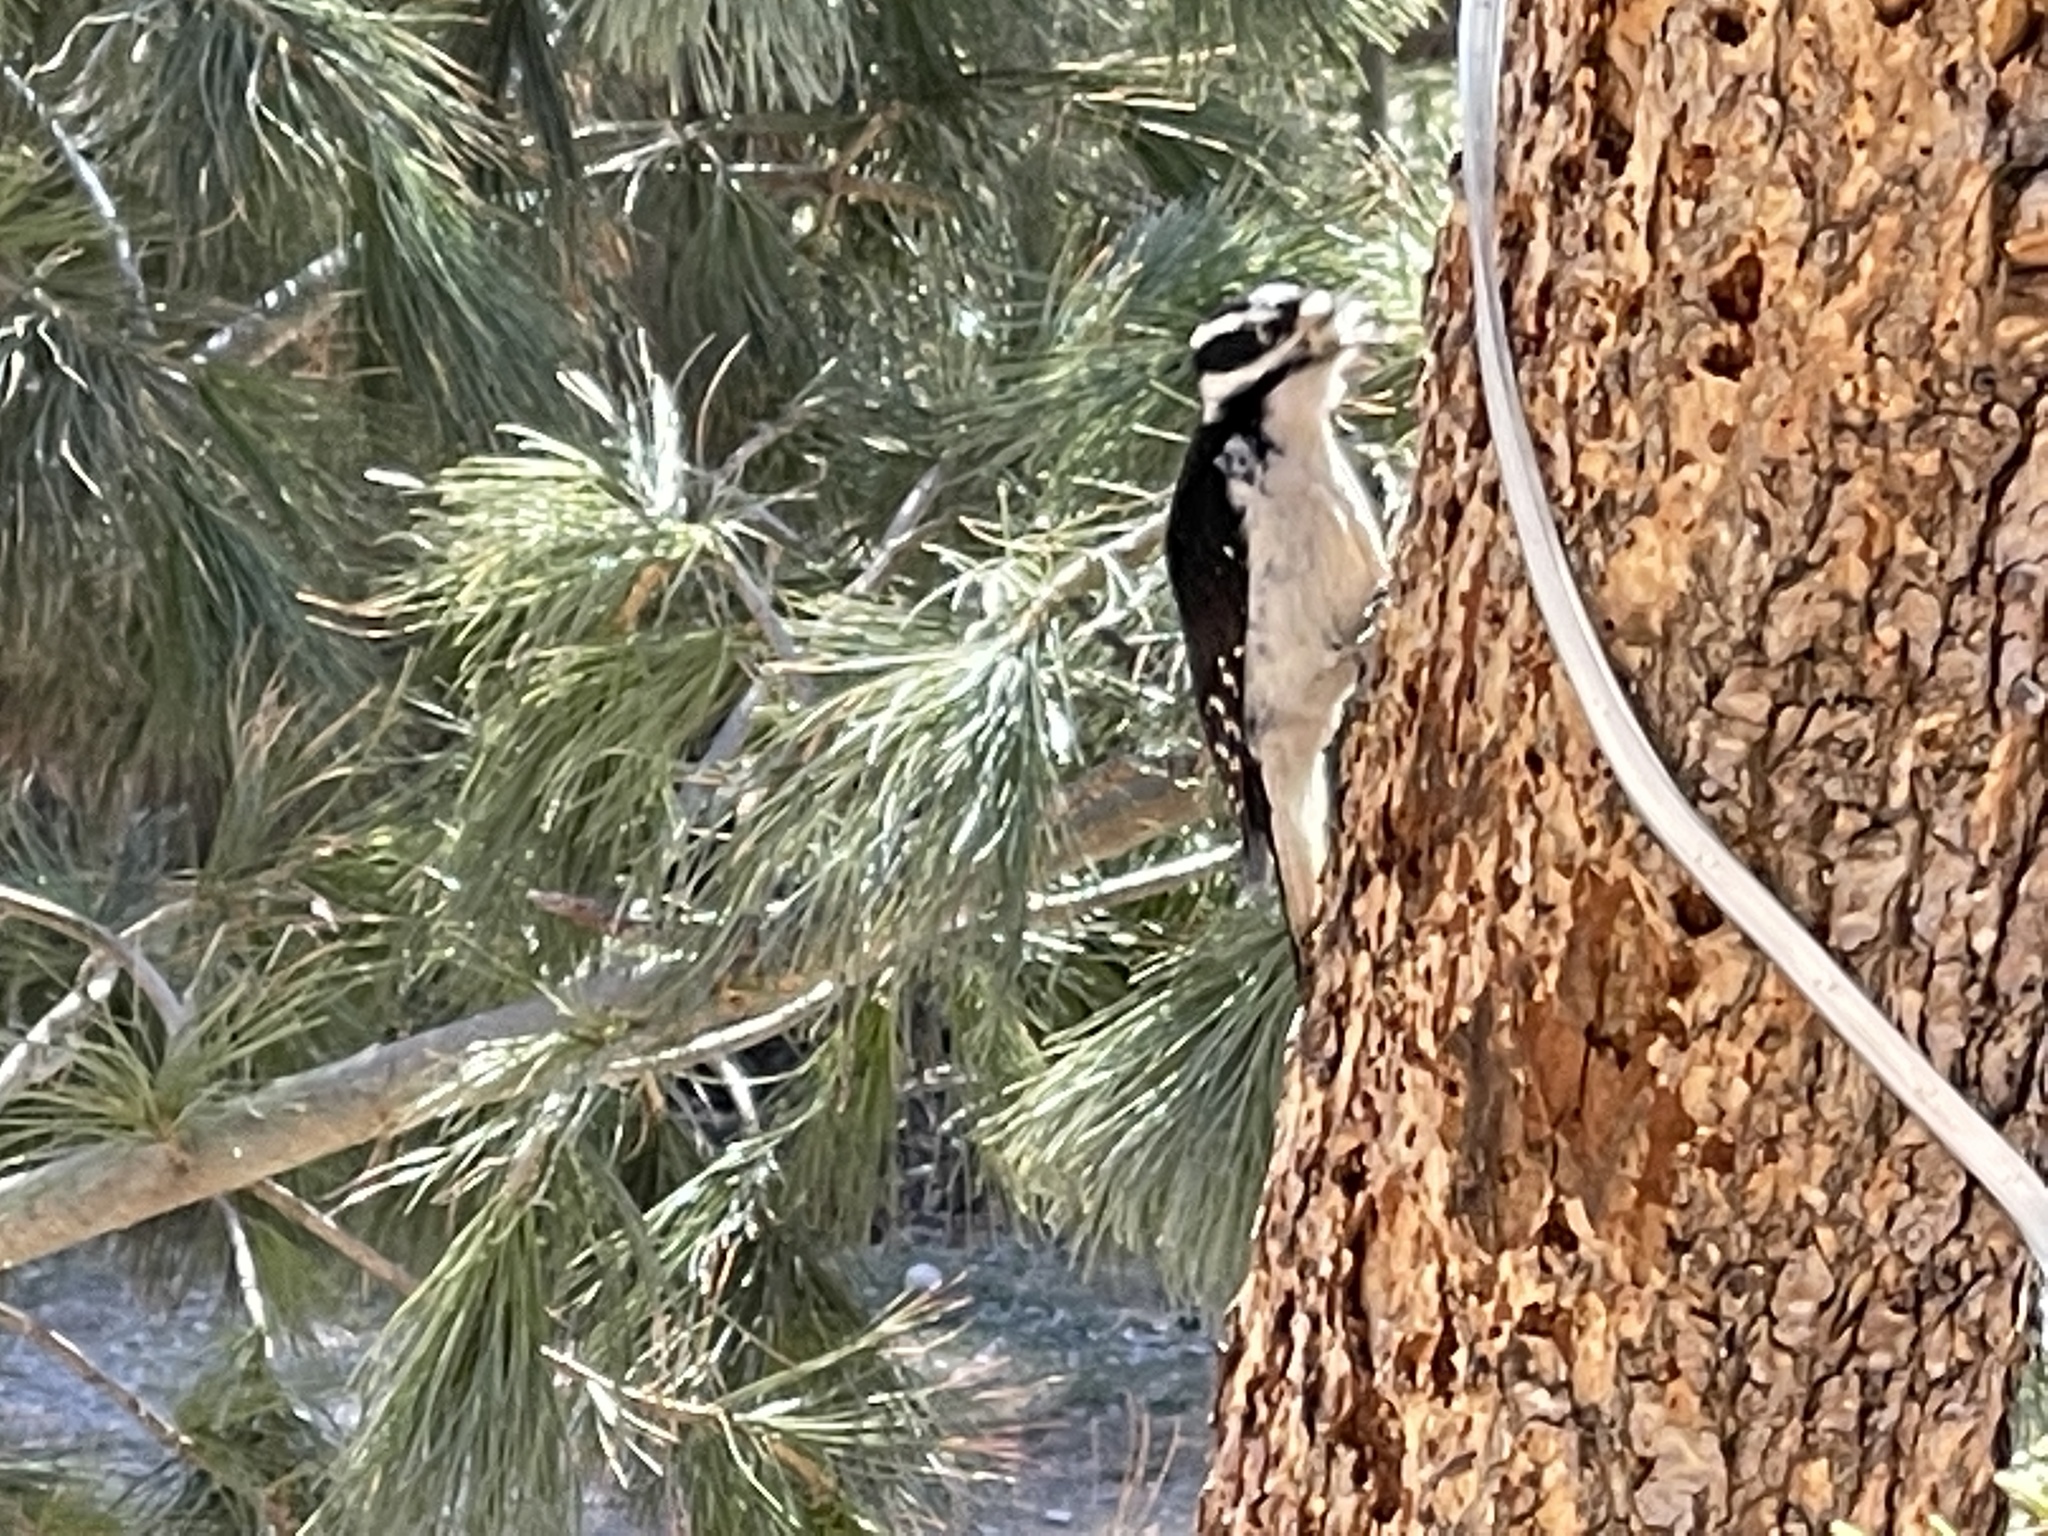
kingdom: Animalia
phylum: Chordata
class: Aves
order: Piciformes
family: Picidae
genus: Leuconotopicus
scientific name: Leuconotopicus villosus
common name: Hairy woodpecker
